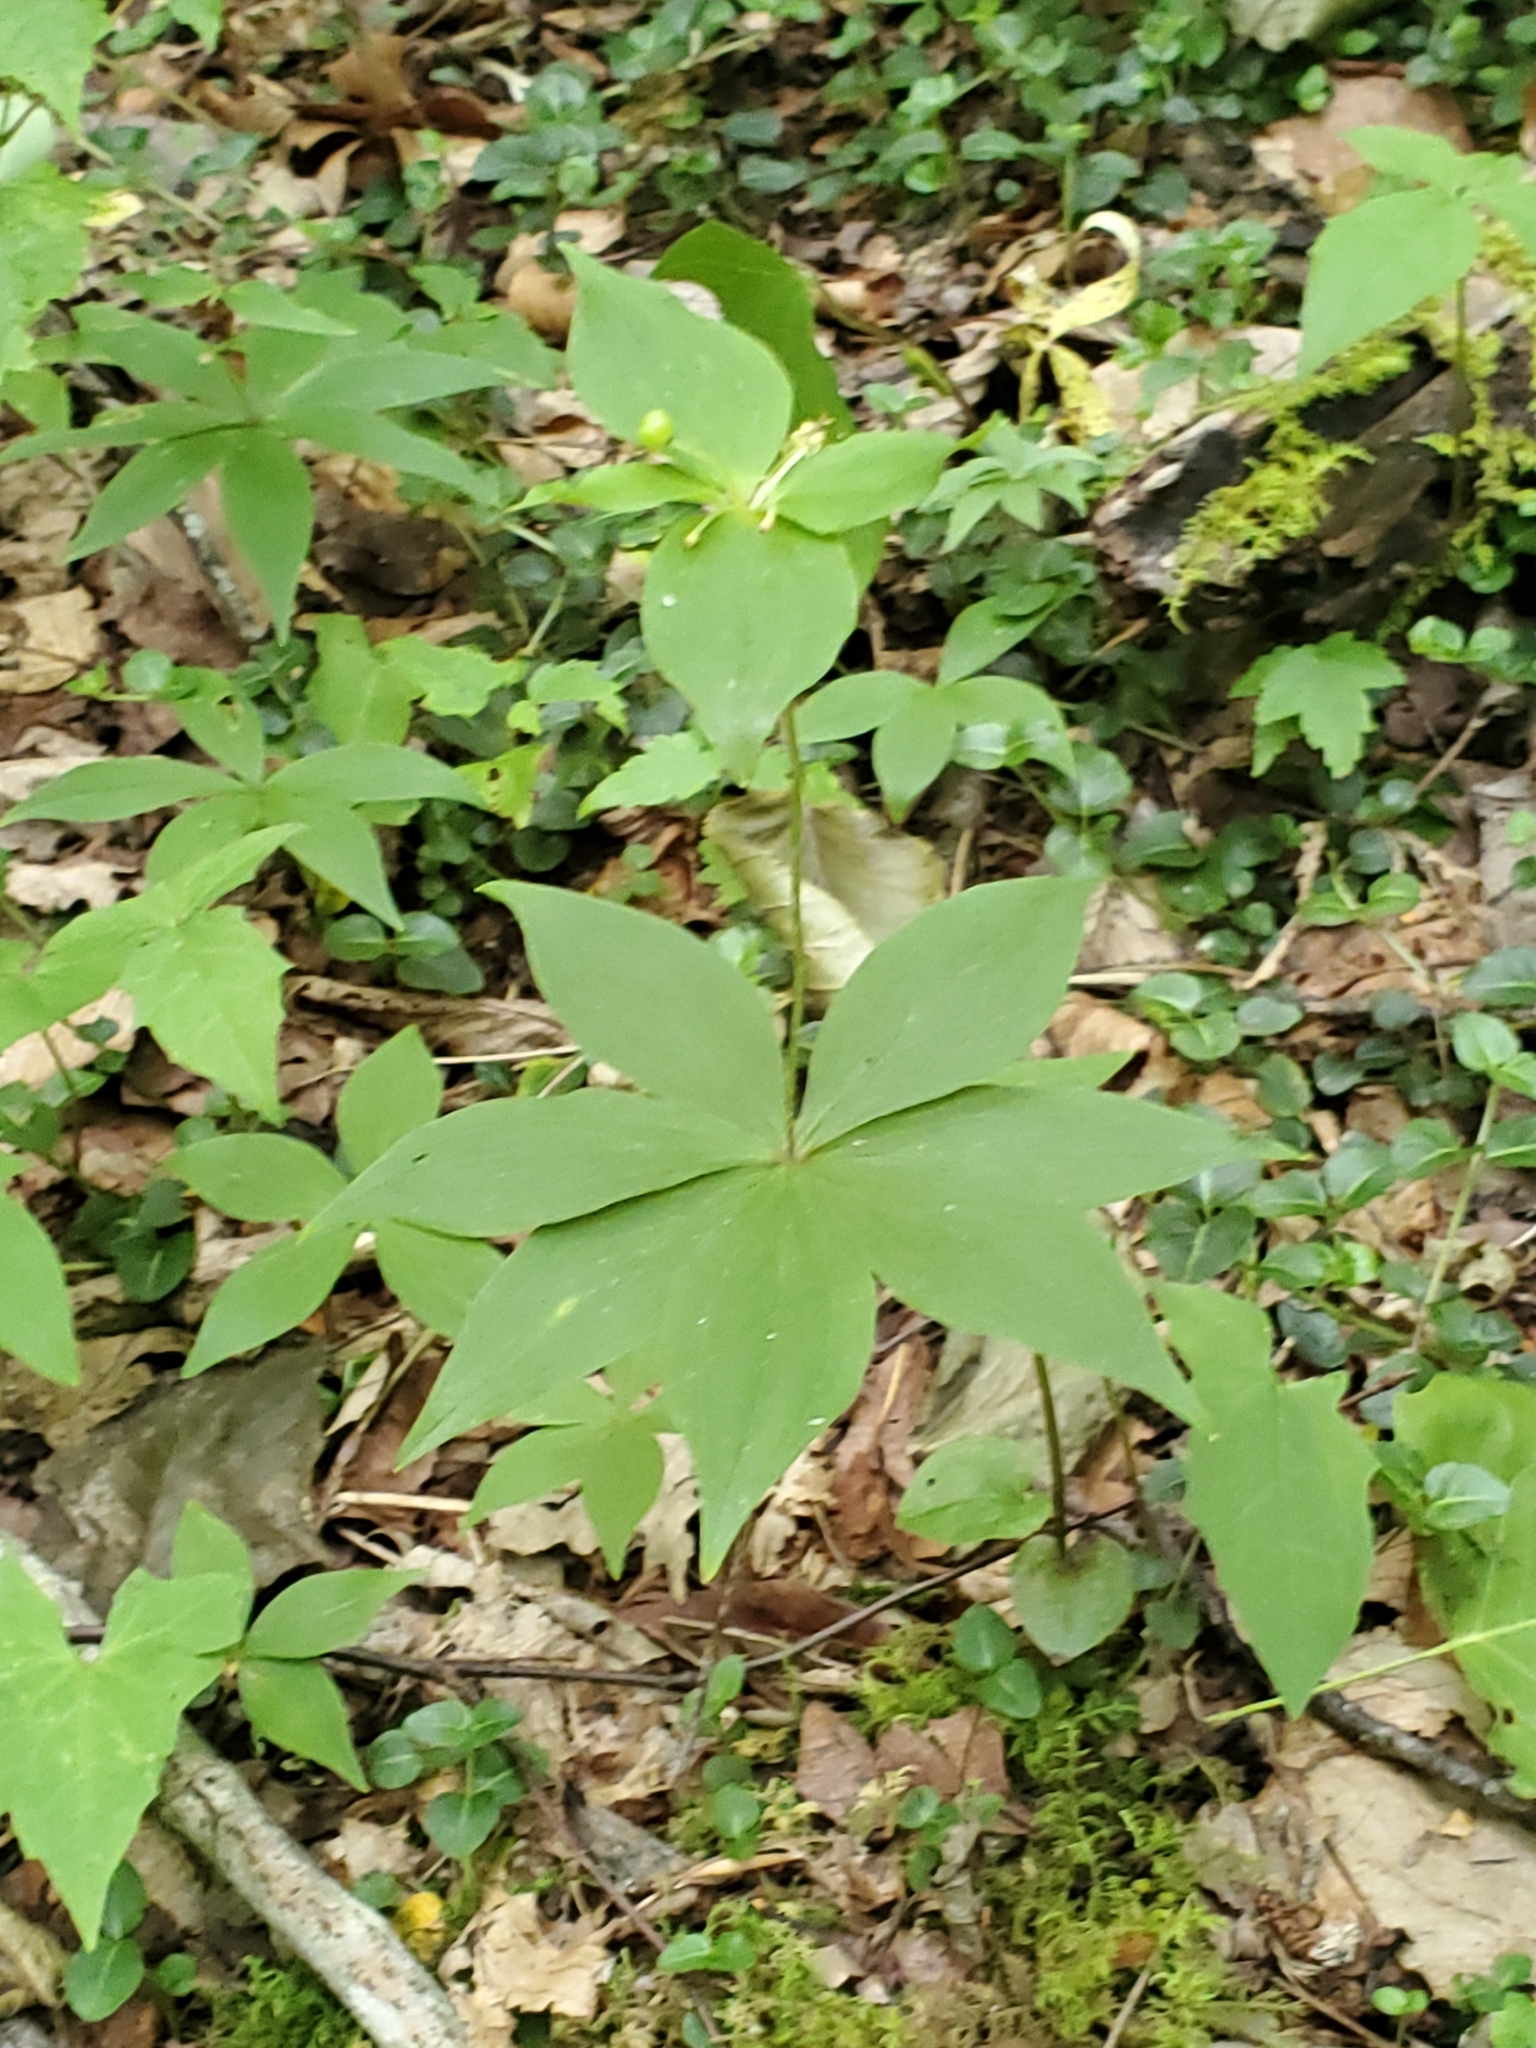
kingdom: Plantae
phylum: Tracheophyta
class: Liliopsida
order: Liliales
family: Liliaceae
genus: Medeola
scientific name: Medeola virginiana
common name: Indian cucumber-root
